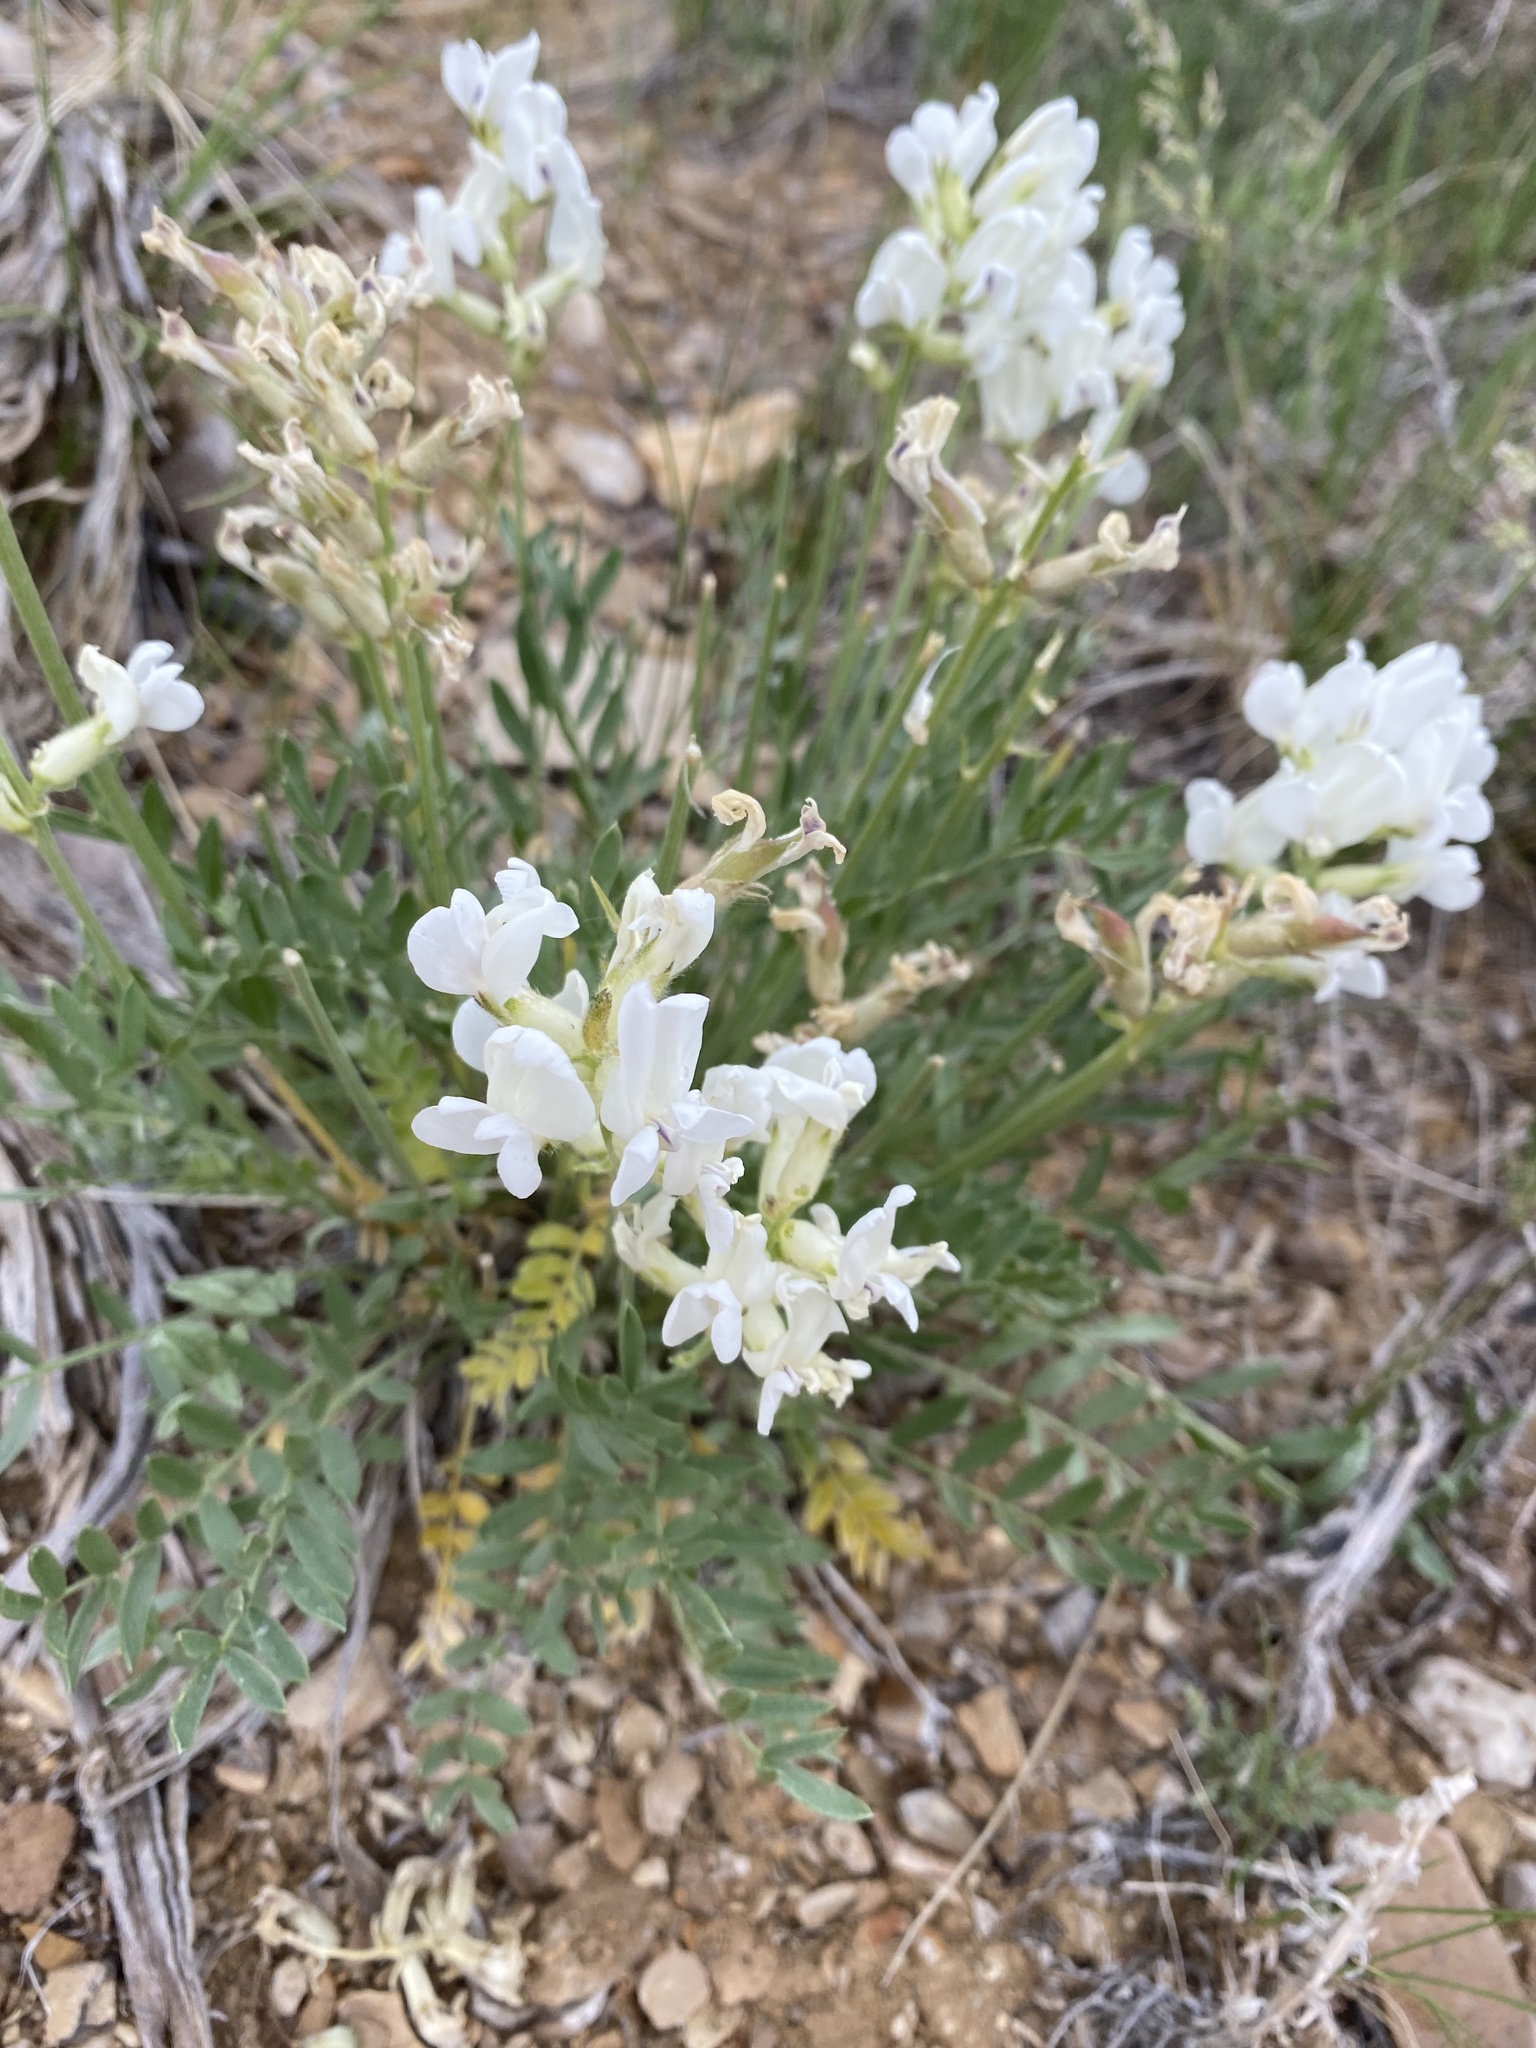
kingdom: Plantae
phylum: Tracheophyta
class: Magnoliopsida
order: Fabales
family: Fabaceae
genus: Oxytropis
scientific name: Oxytropis sericea
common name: Silky locoweed
